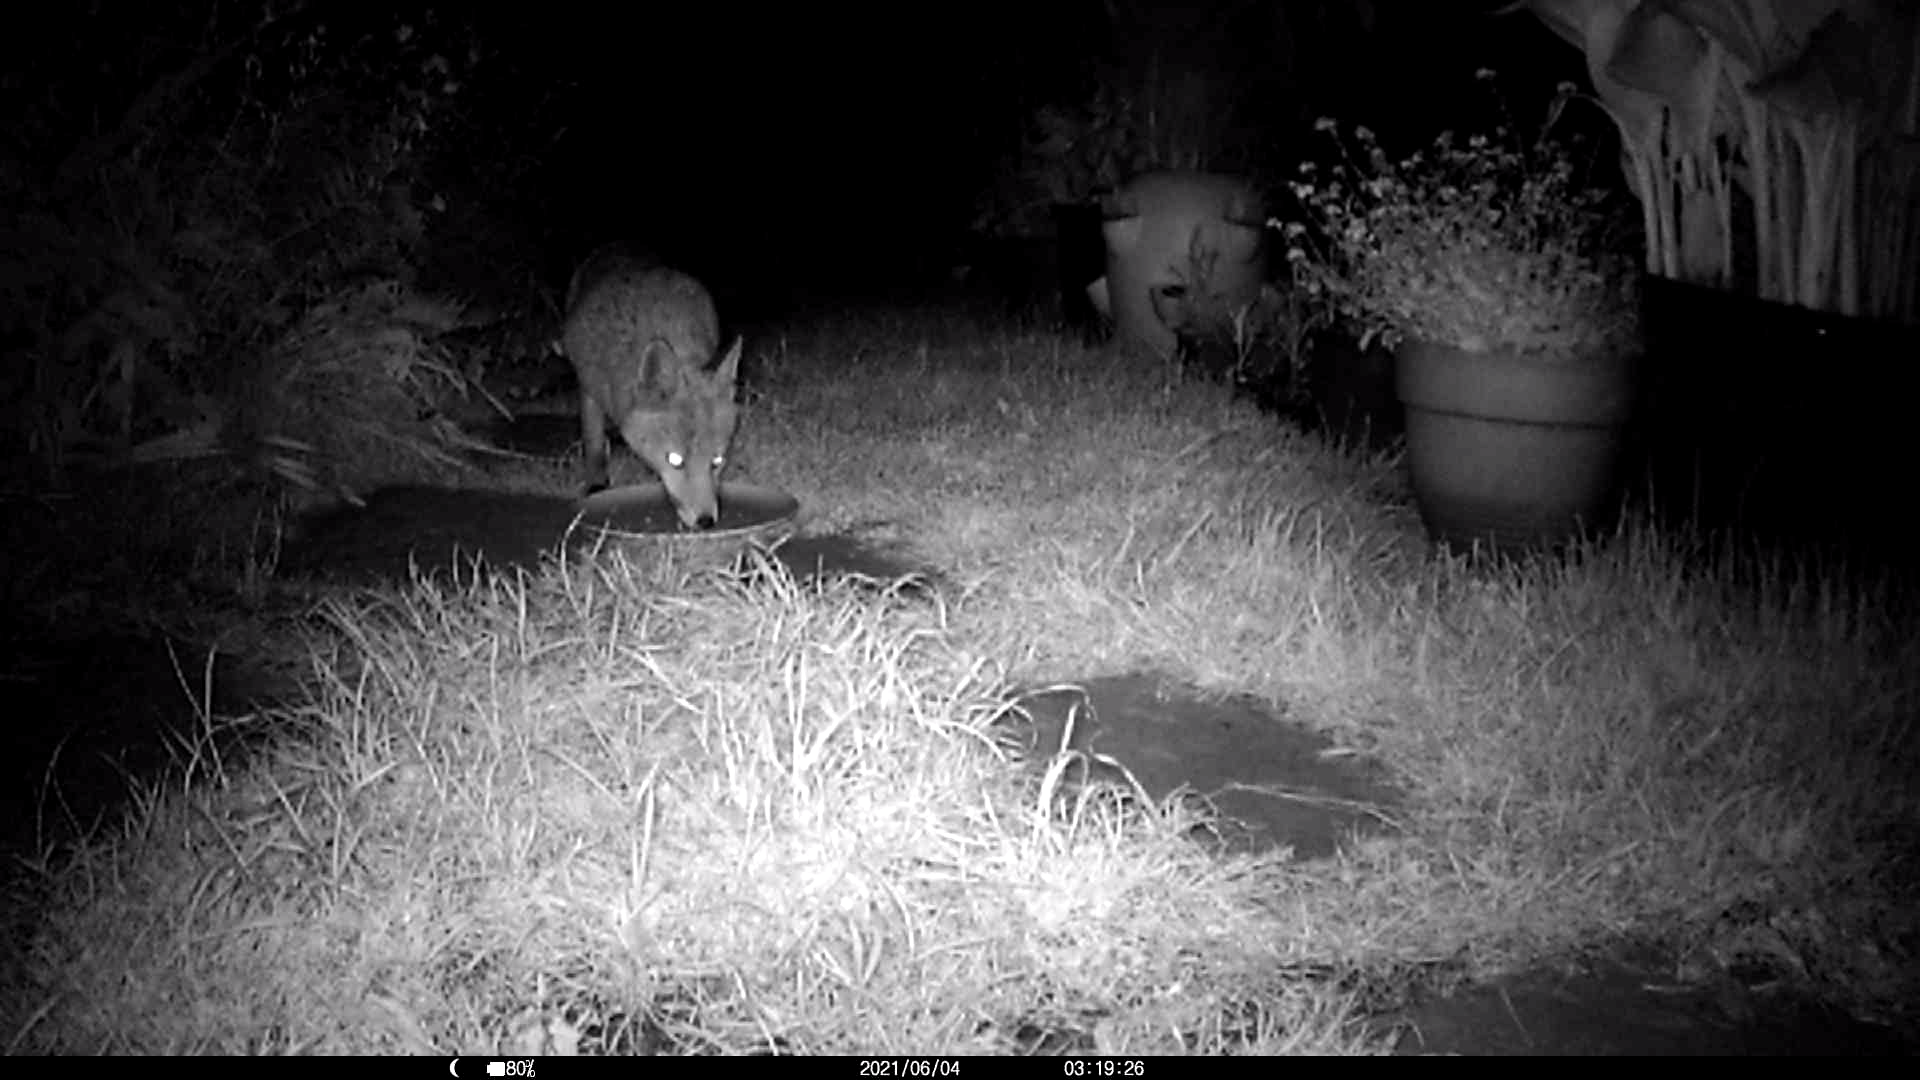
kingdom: Animalia
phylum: Chordata
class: Mammalia
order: Carnivora
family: Canidae
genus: Vulpes
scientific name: Vulpes vulpes
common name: Red fox
